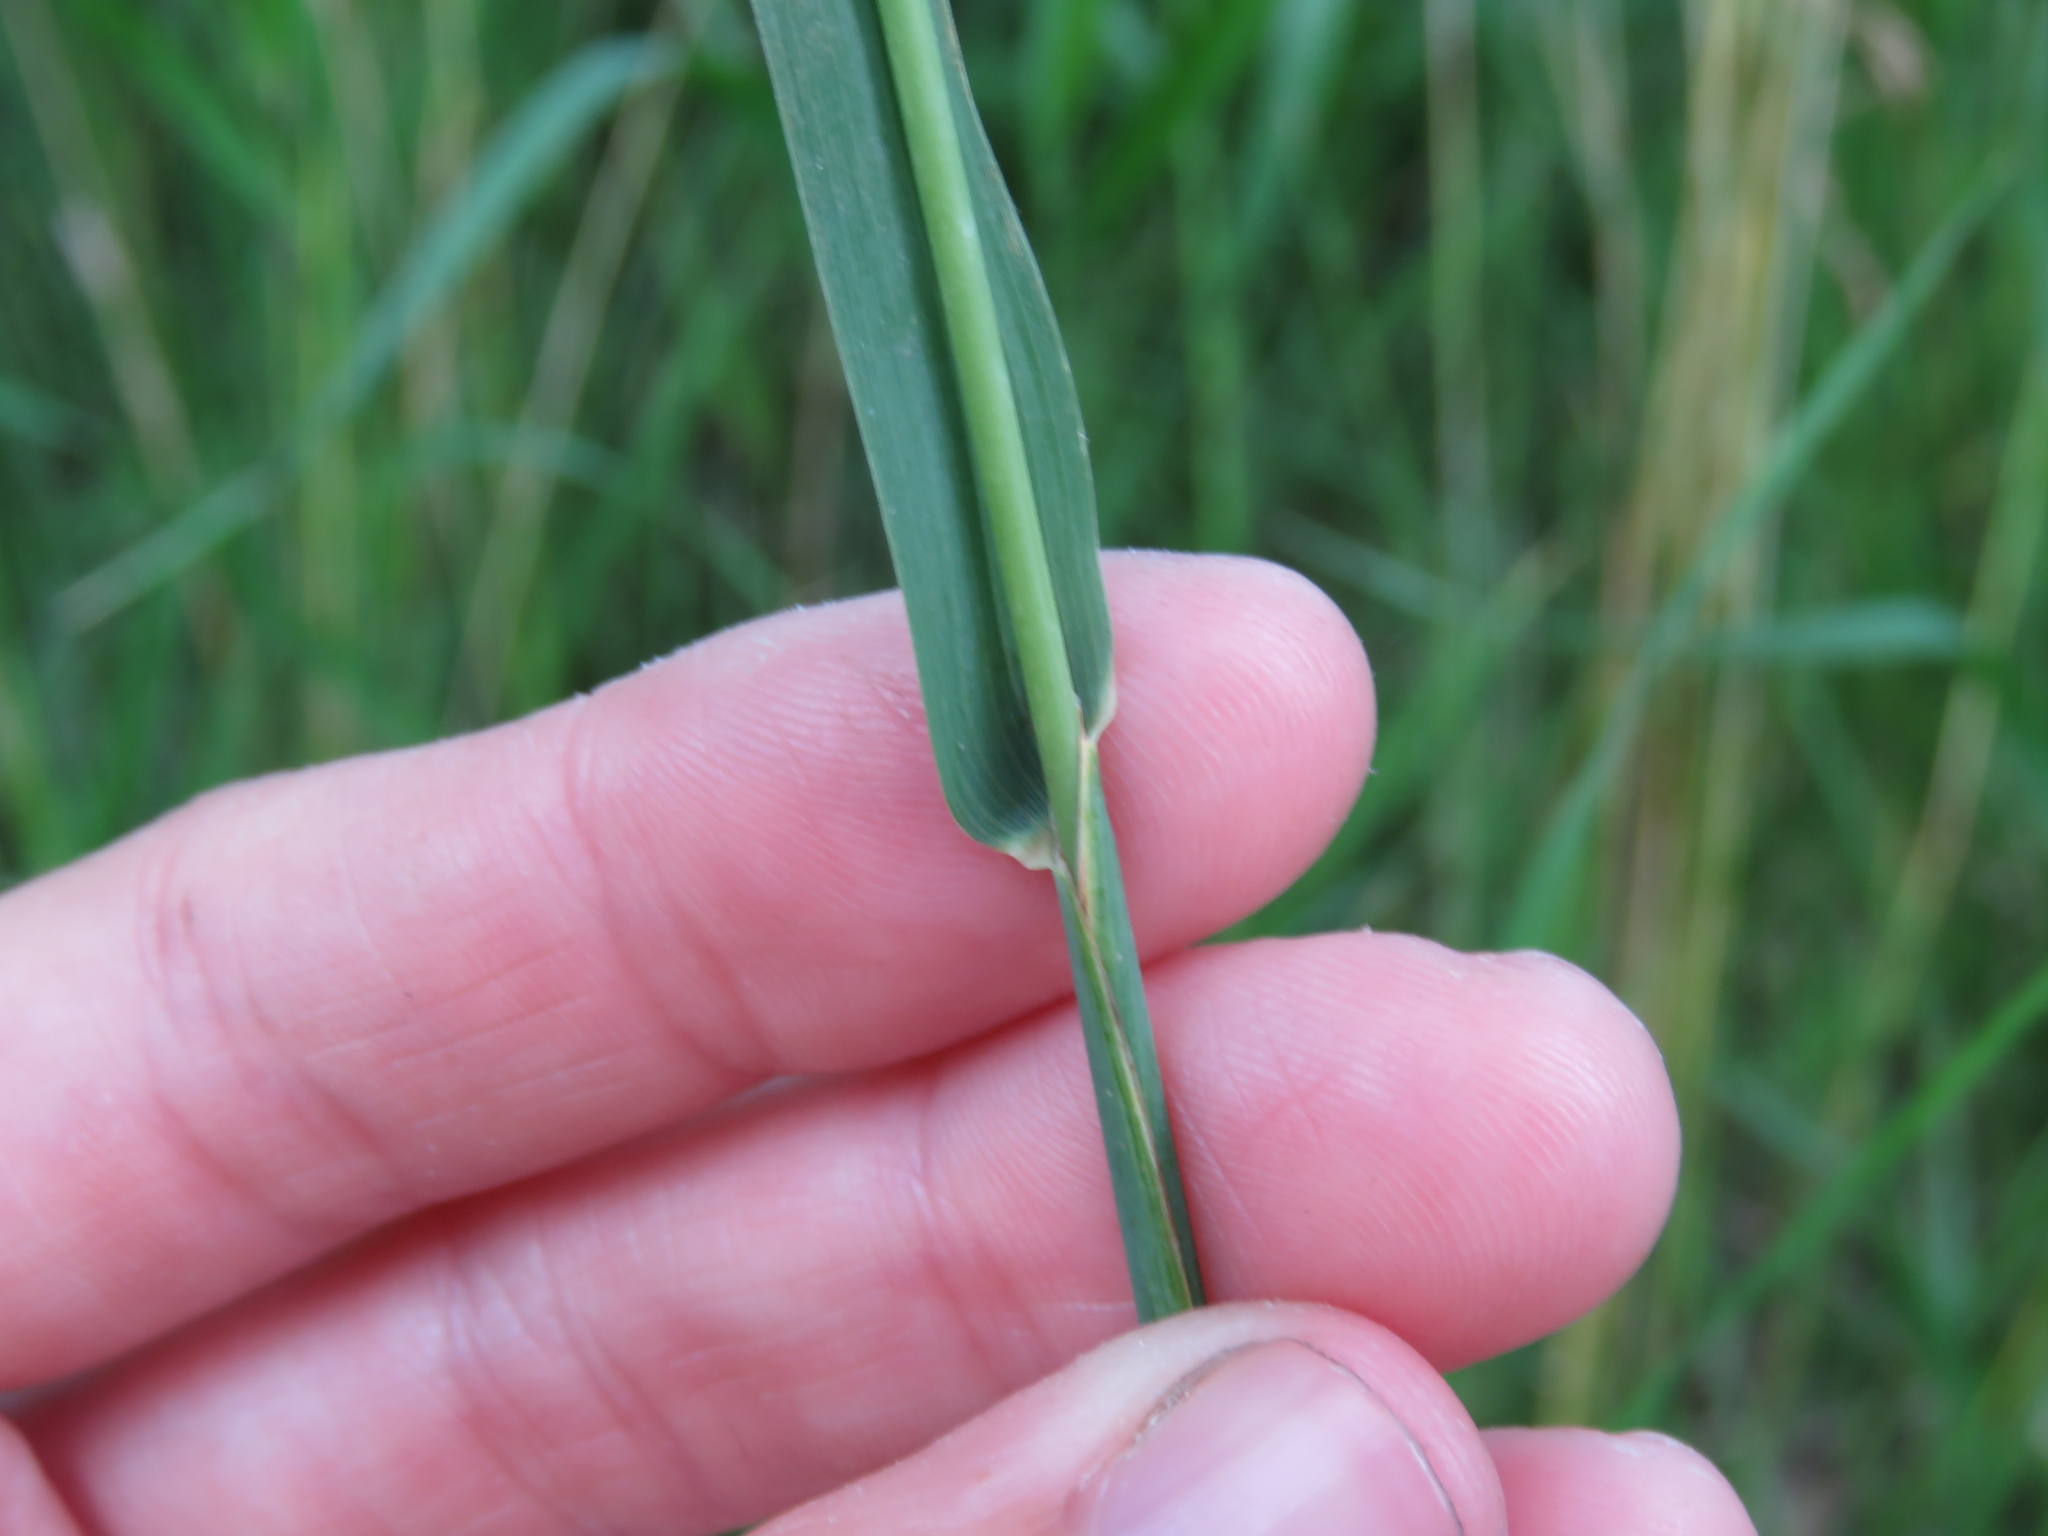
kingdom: Plantae
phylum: Tracheophyta
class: Liliopsida
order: Poales
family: Poaceae
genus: Phleum
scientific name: Phleum pratense
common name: Timothy grass
